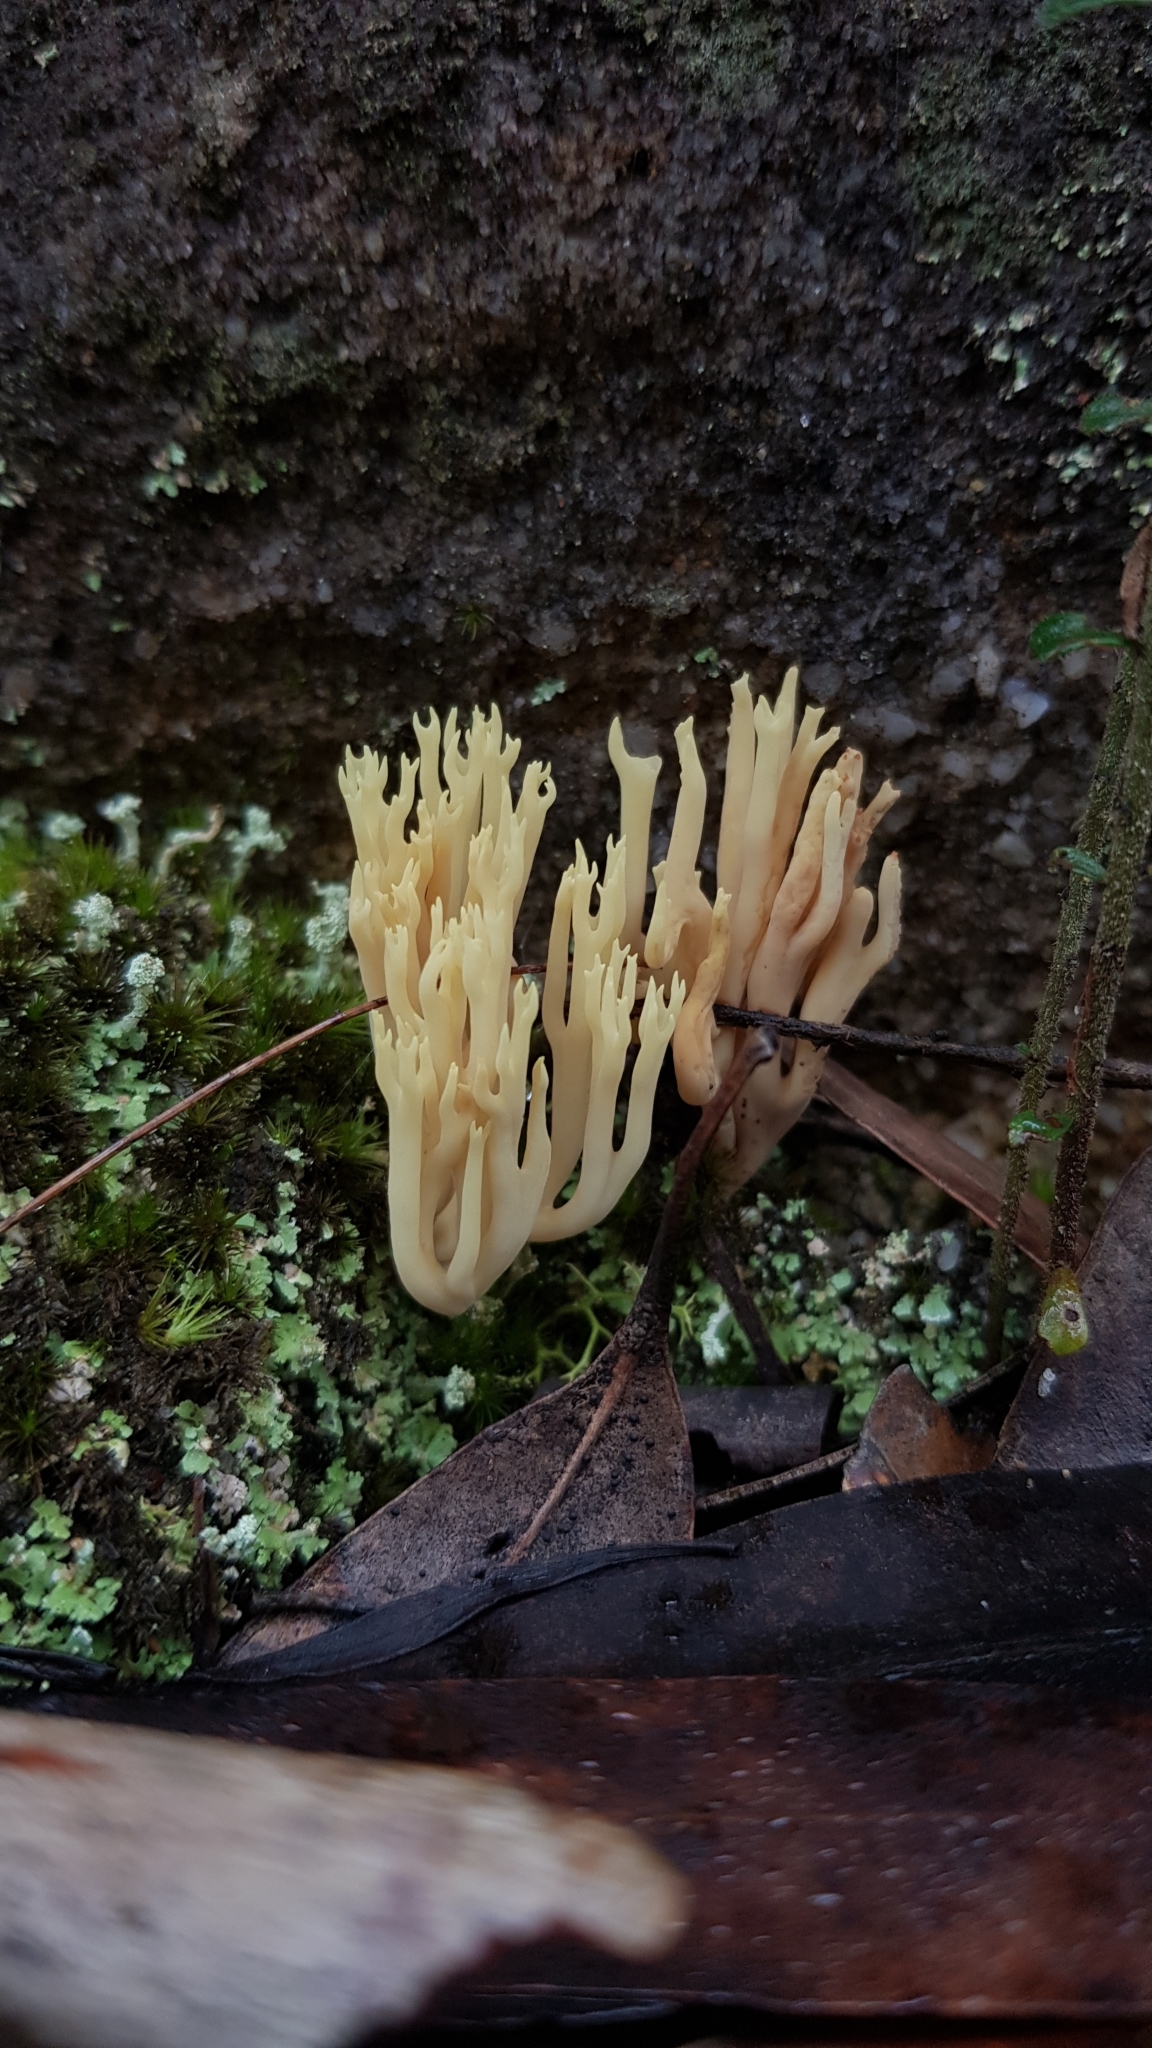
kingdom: Fungi
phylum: Basidiomycota
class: Agaricomycetes
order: Gomphales
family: Gomphaceae
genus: Ramaria
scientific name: Ramaria lorithamnus
